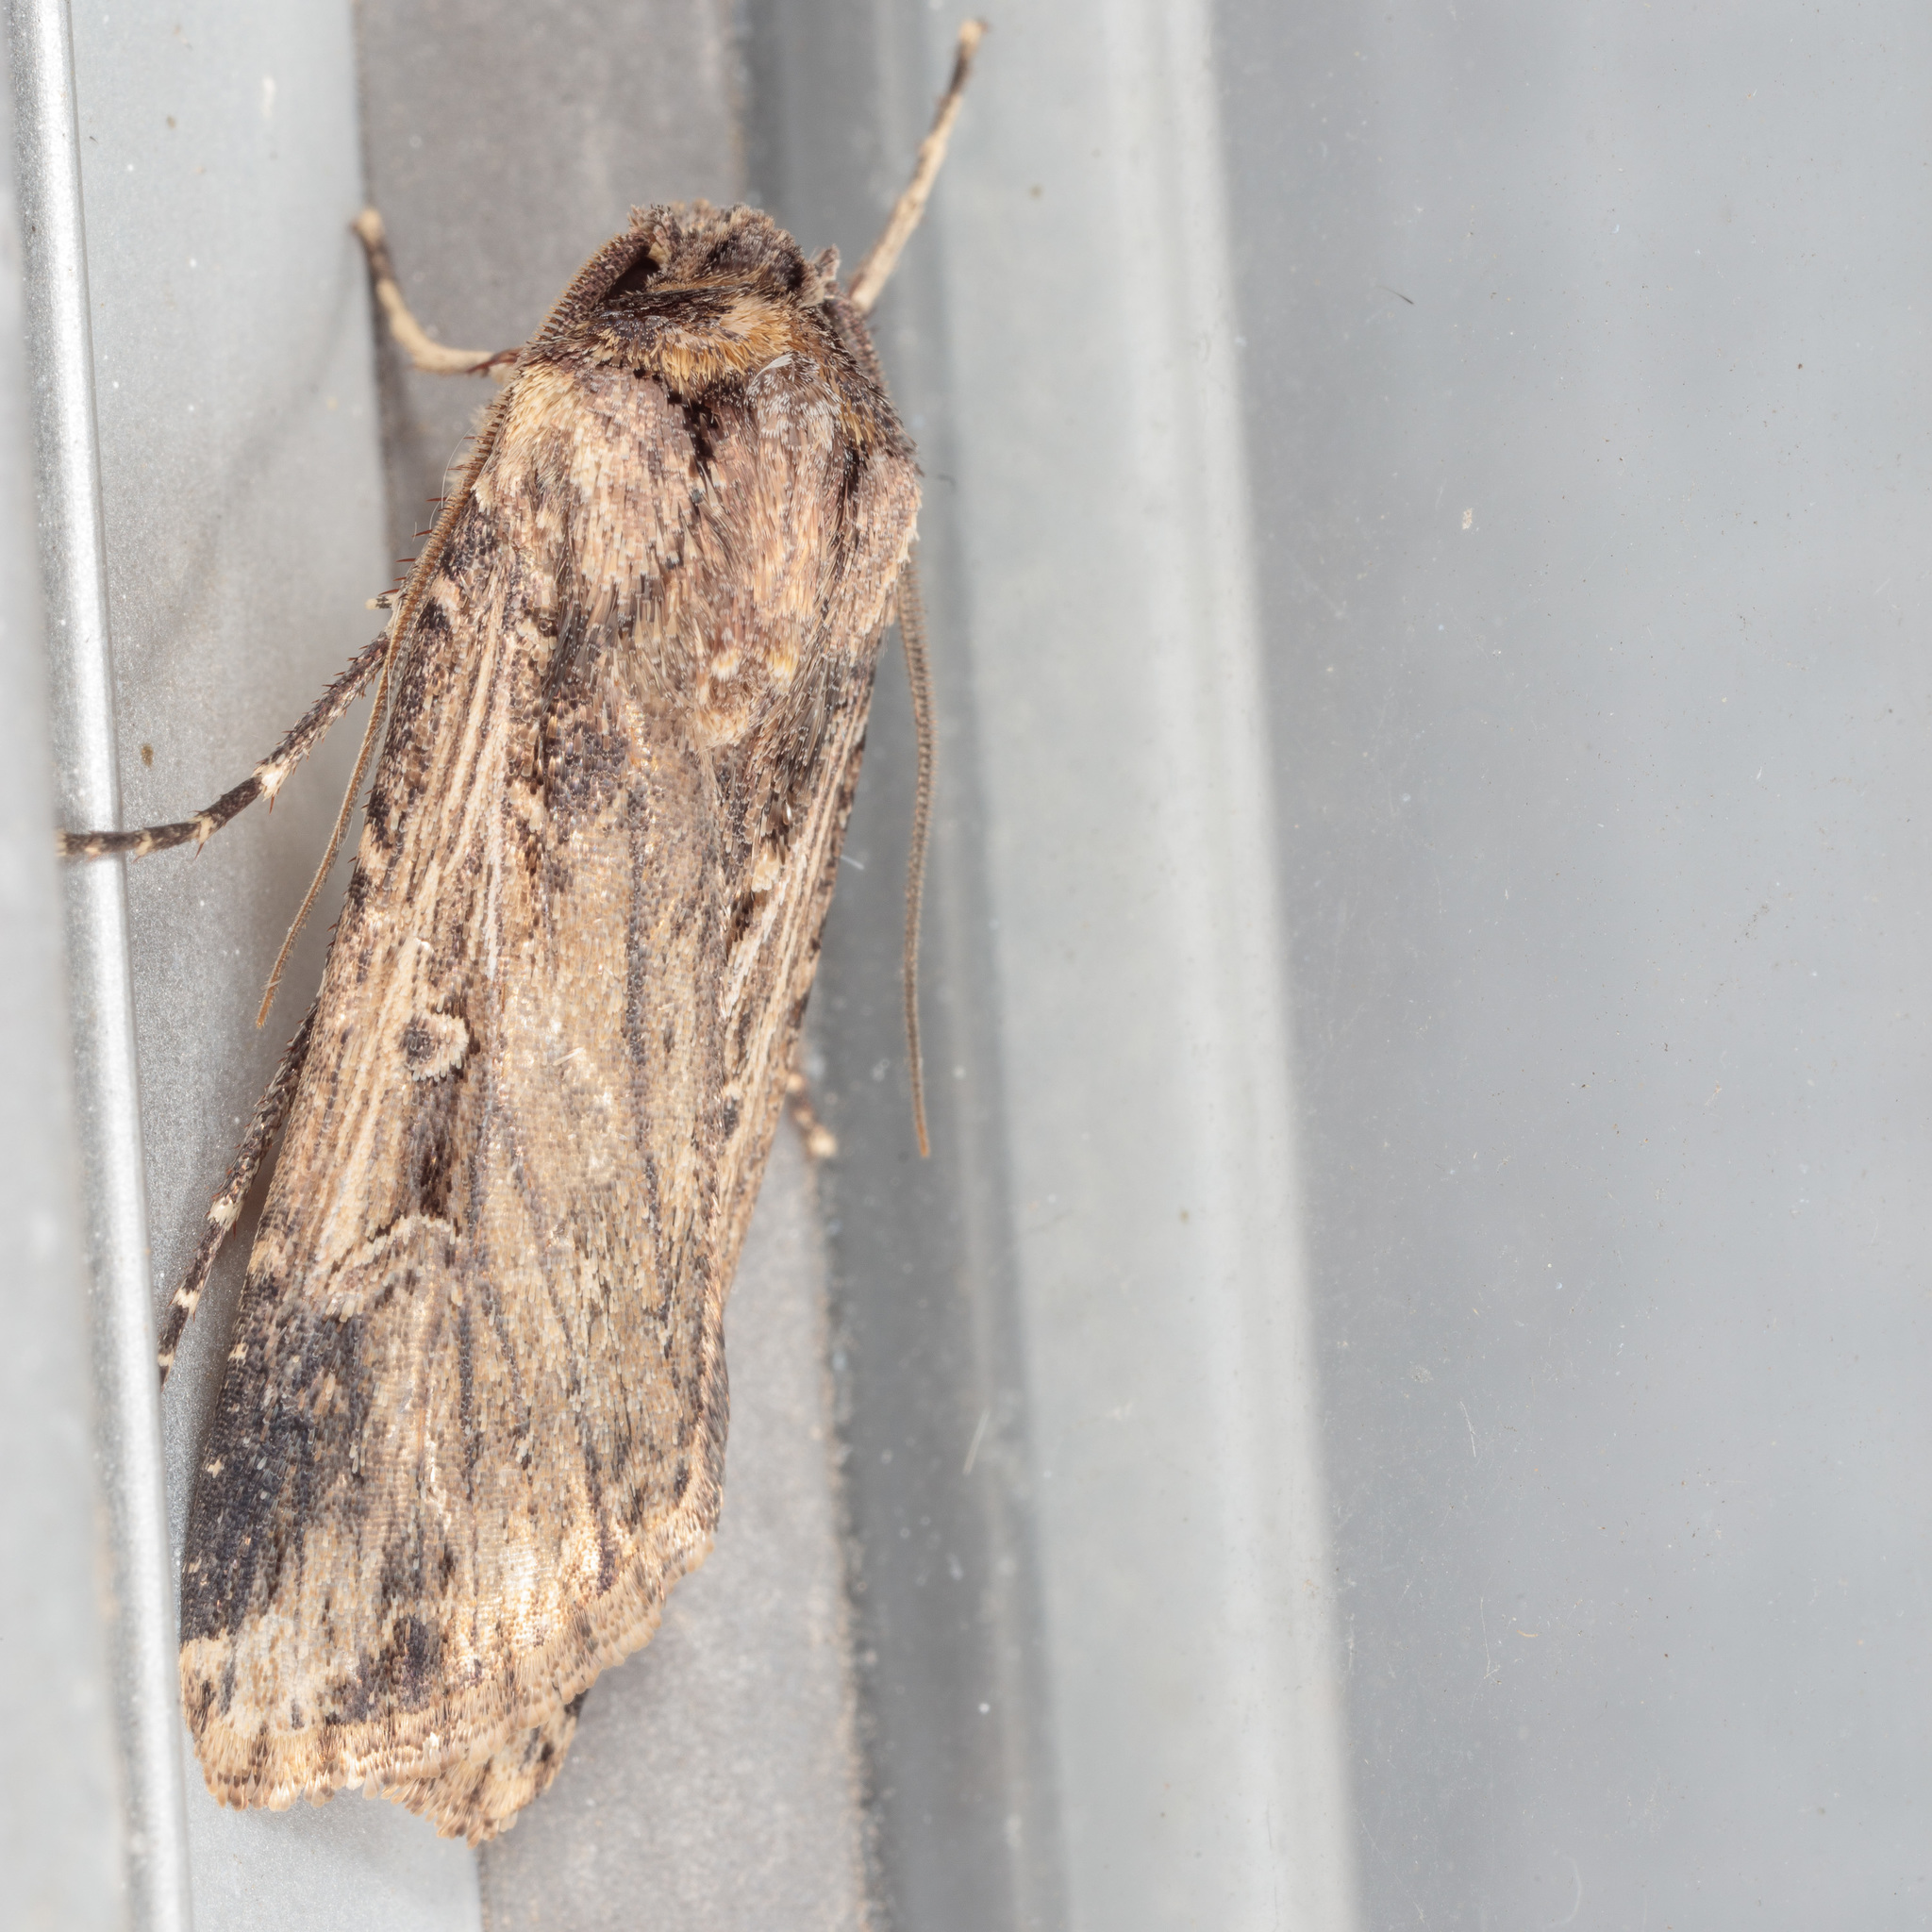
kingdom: Animalia
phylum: Arthropoda
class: Insecta
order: Lepidoptera
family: Noctuidae
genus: Feltia
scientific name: Feltia subterranea
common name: Granulate cutworm
